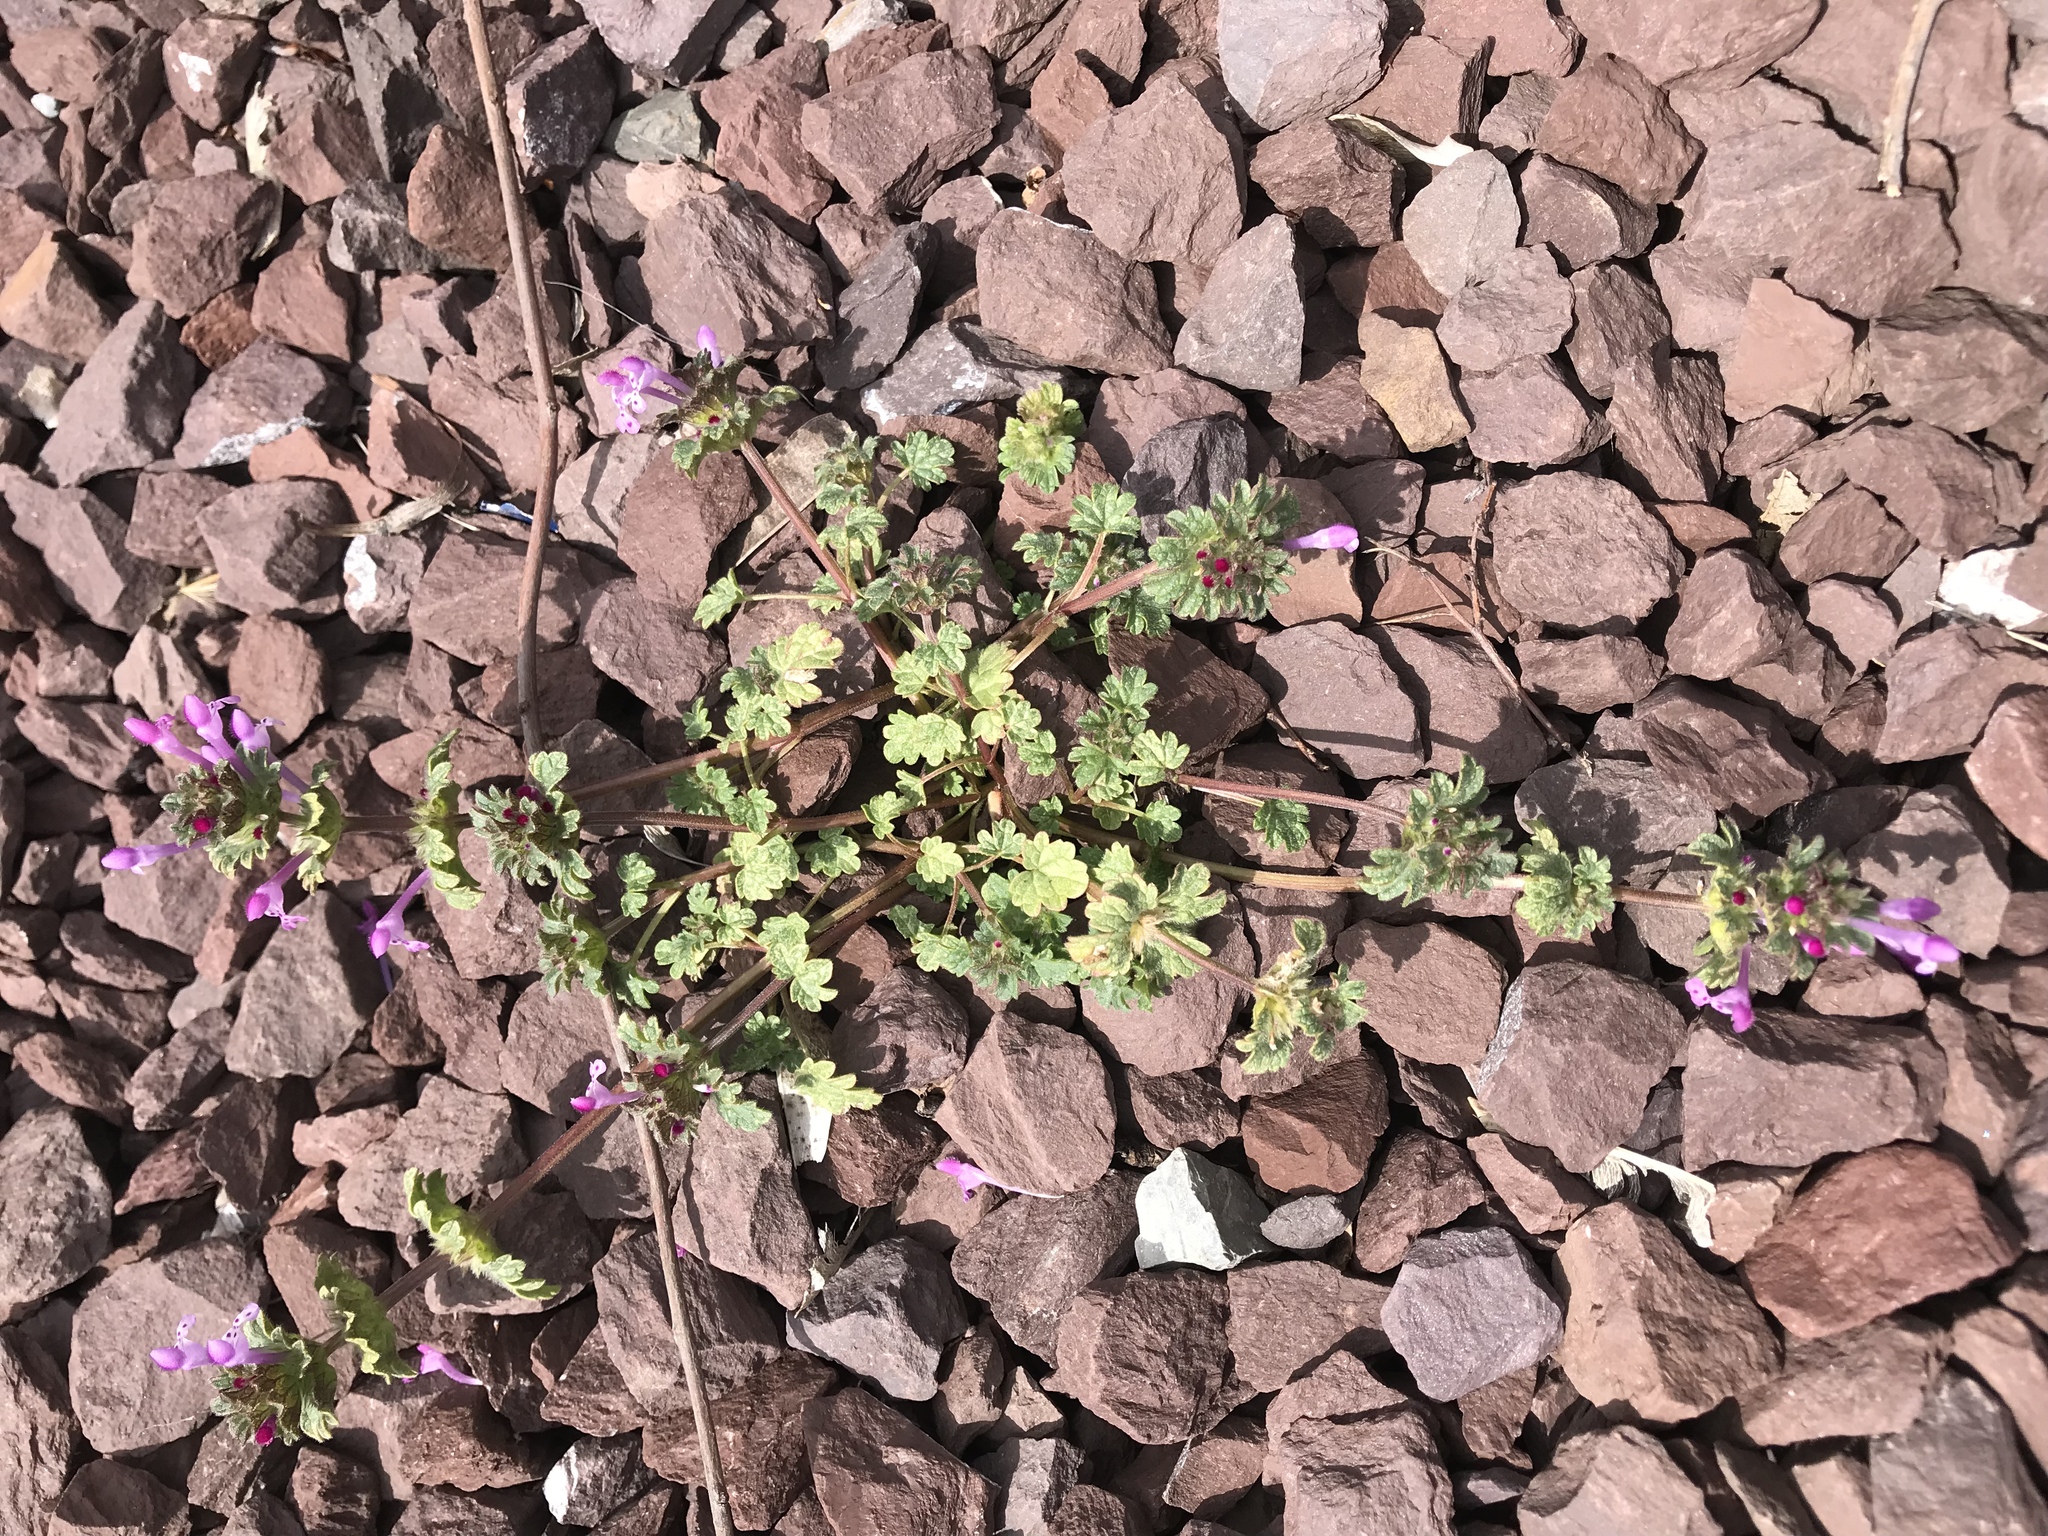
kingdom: Plantae
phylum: Tracheophyta
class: Magnoliopsida
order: Lamiales
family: Lamiaceae
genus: Lamium
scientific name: Lamium amplexicaule
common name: Henbit dead-nettle
